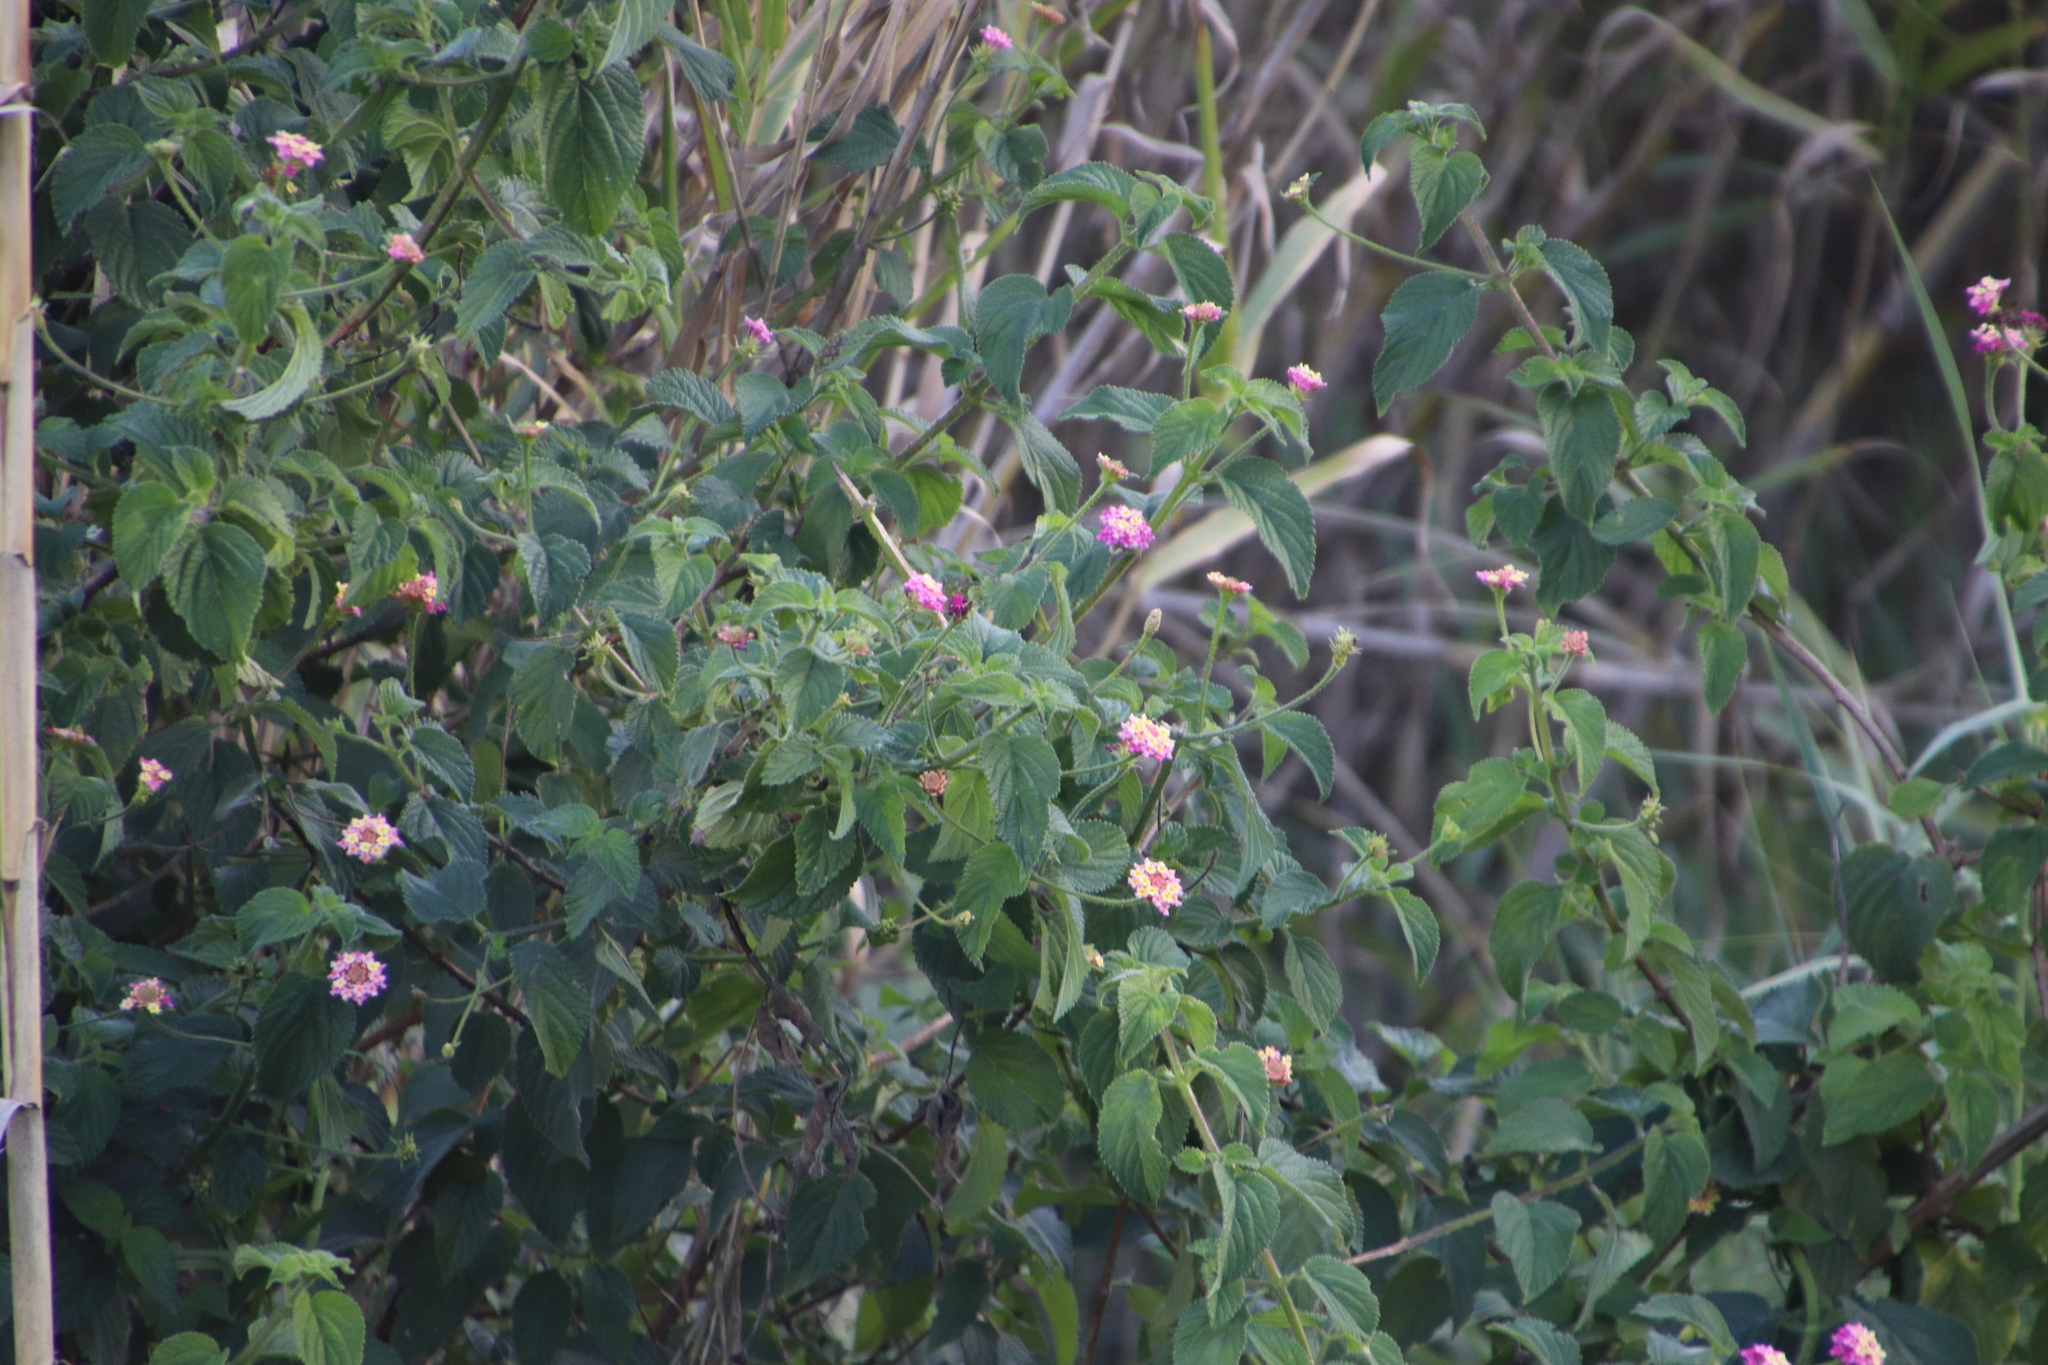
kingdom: Plantae
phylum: Tracheophyta
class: Magnoliopsida
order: Lamiales
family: Verbenaceae
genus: Lantana
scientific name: Lantana camara
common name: Lantana
